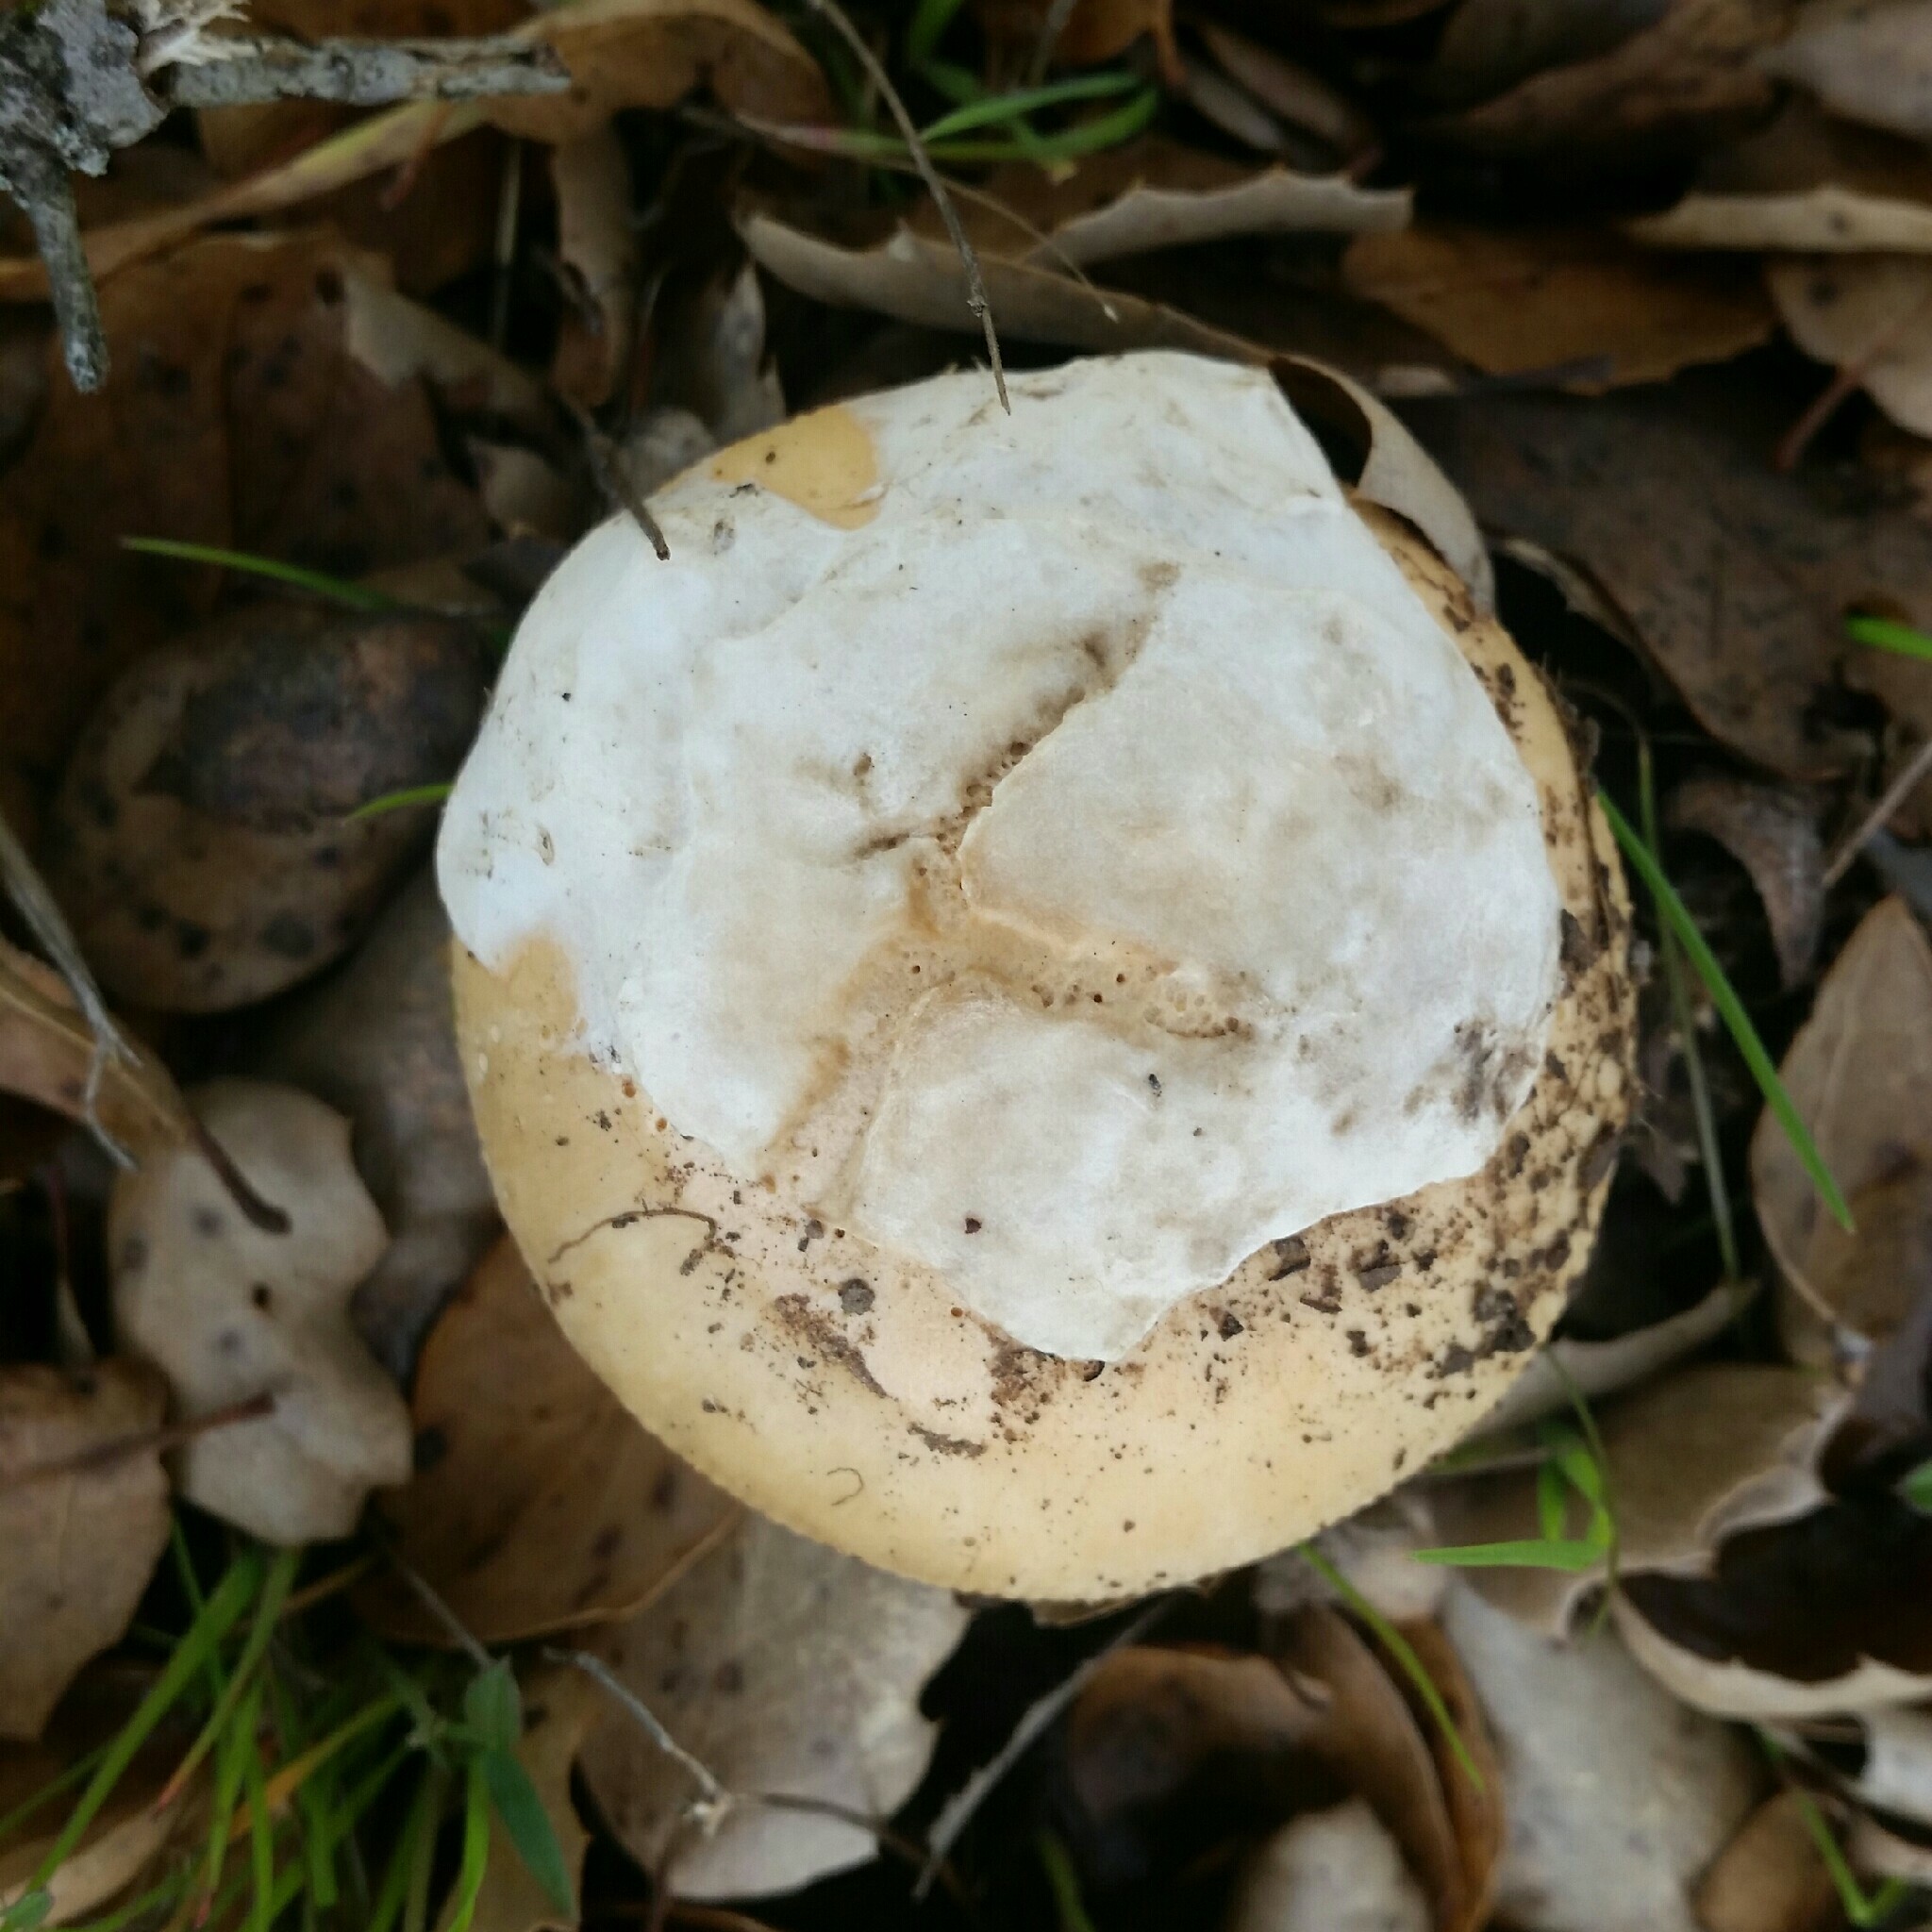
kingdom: Fungi
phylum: Basidiomycota
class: Agaricomycetes
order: Agaricales
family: Amanitaceae
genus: Amanita
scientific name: Amanita velosa
